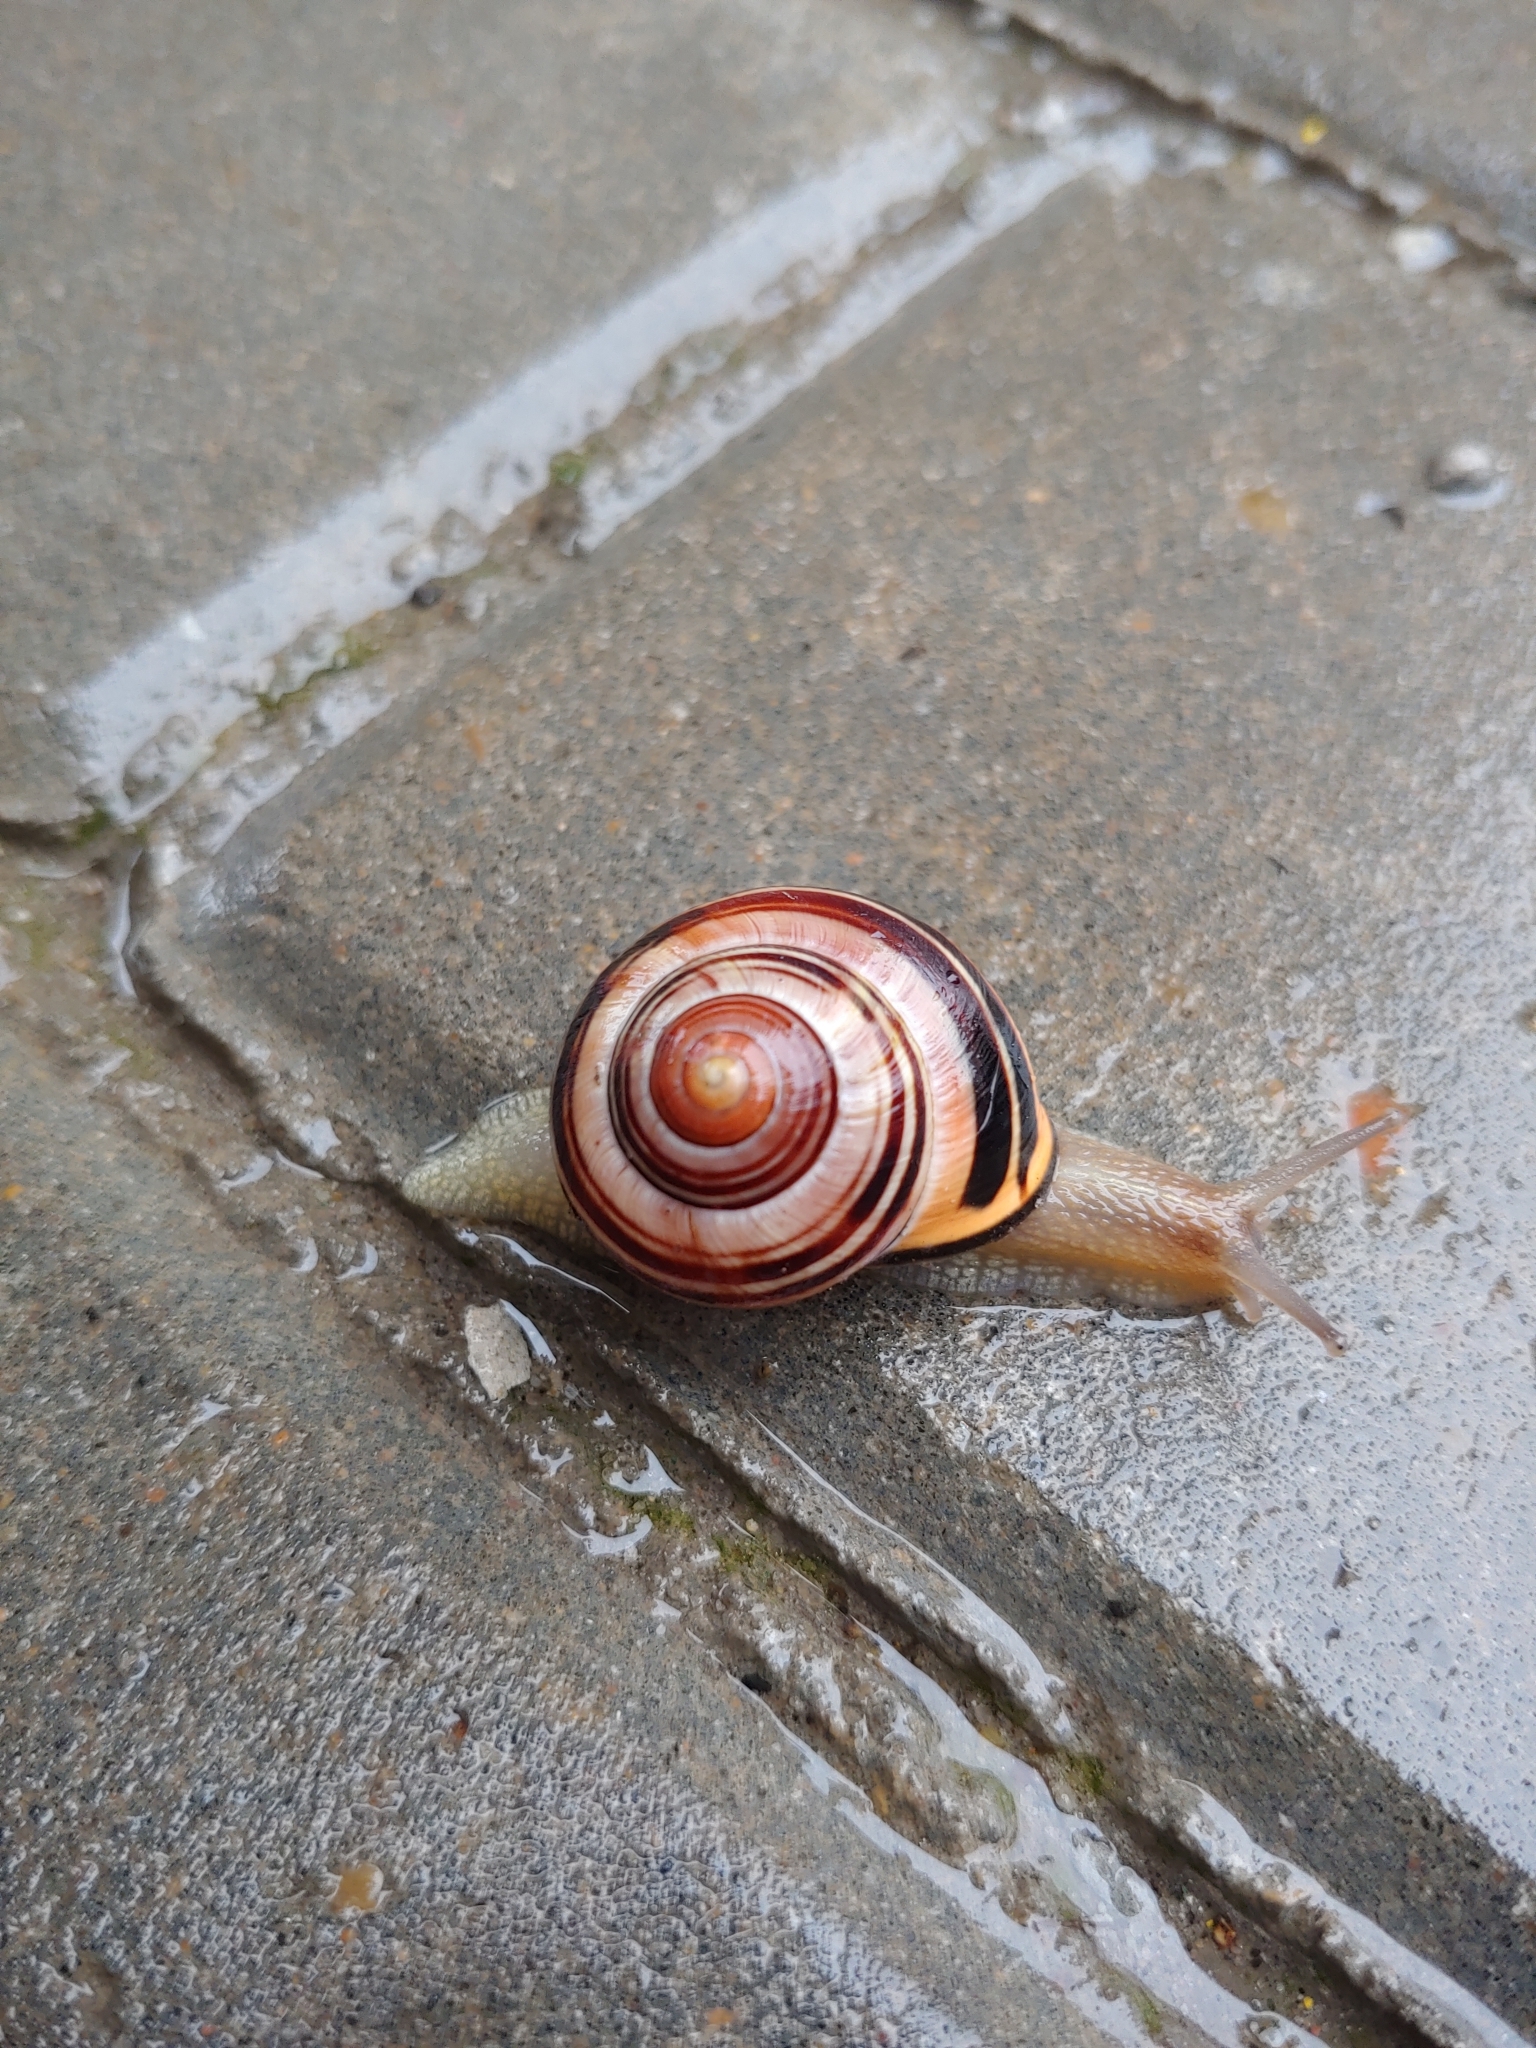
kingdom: Animalia
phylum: Mollusca
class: Gastropoda
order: Stylommatophora
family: Helicidae
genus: Cepaea
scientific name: Cepaea nemoralis
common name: Grovesnail
